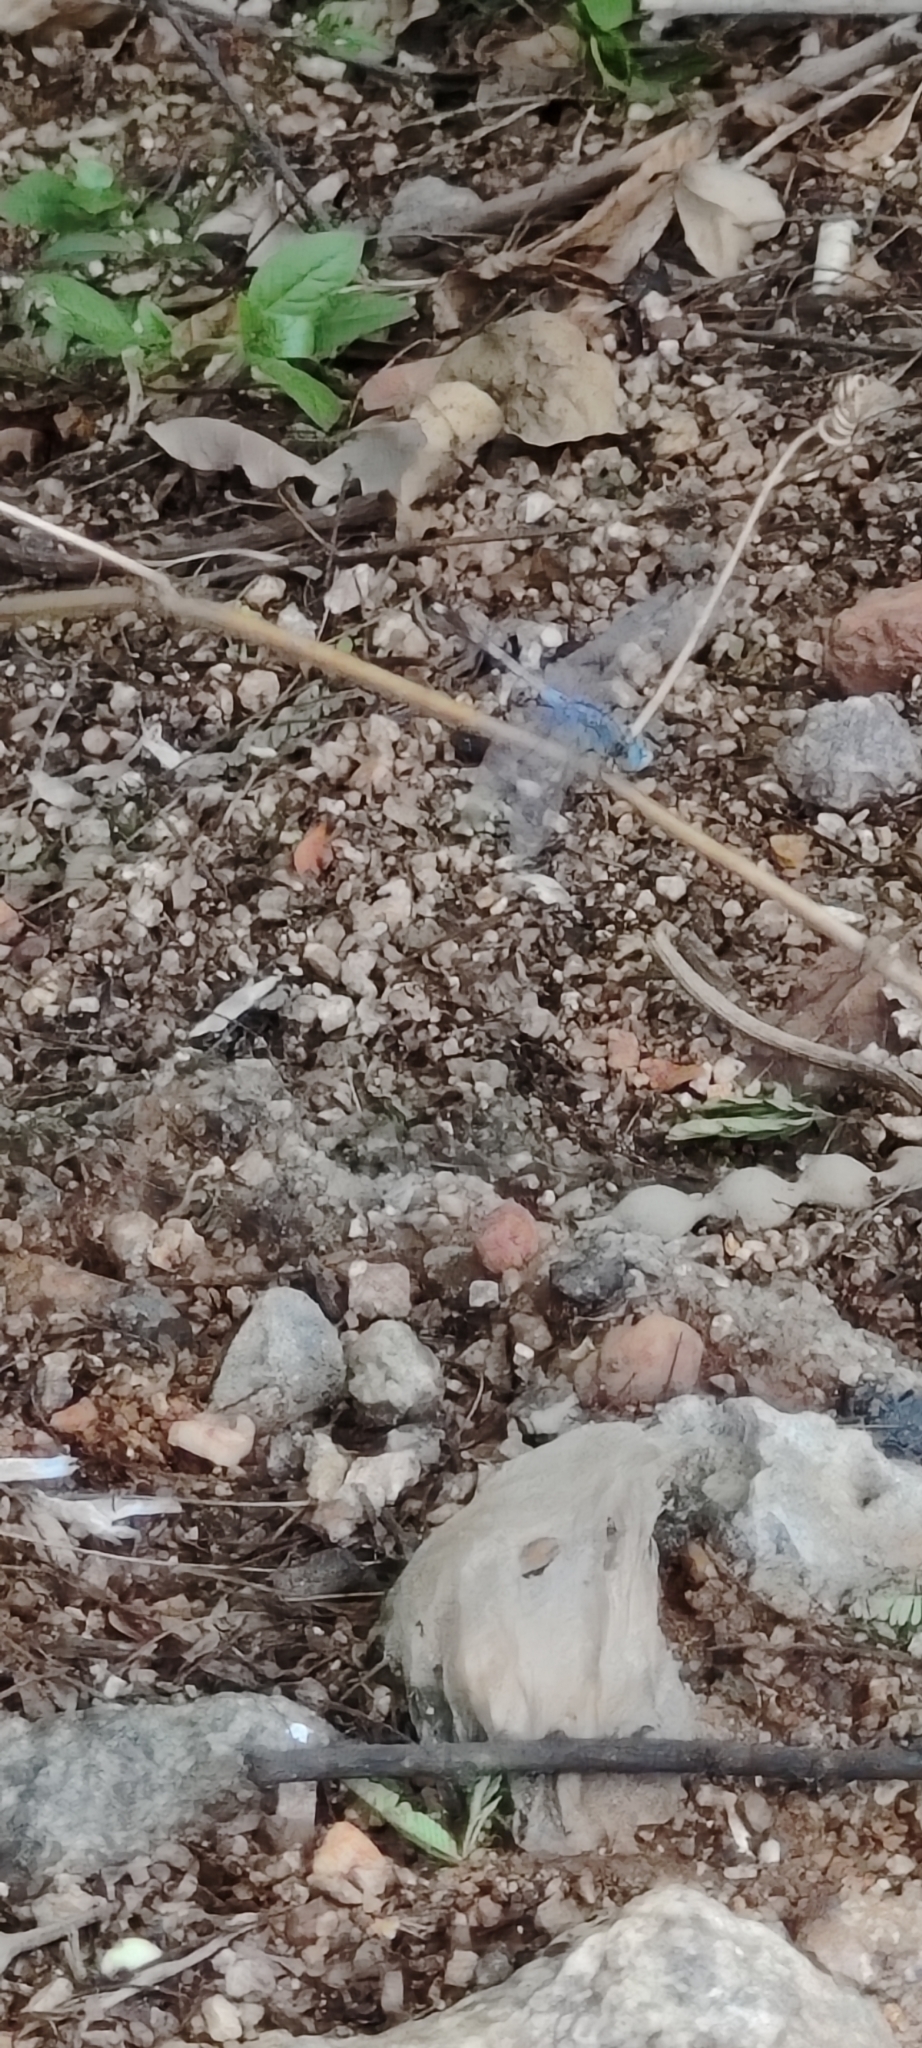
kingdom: Animalia
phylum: Arthropoda
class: Insecta
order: Odonata
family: Libellulidae
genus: Diplacodes
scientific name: Diplacodes trivialis
